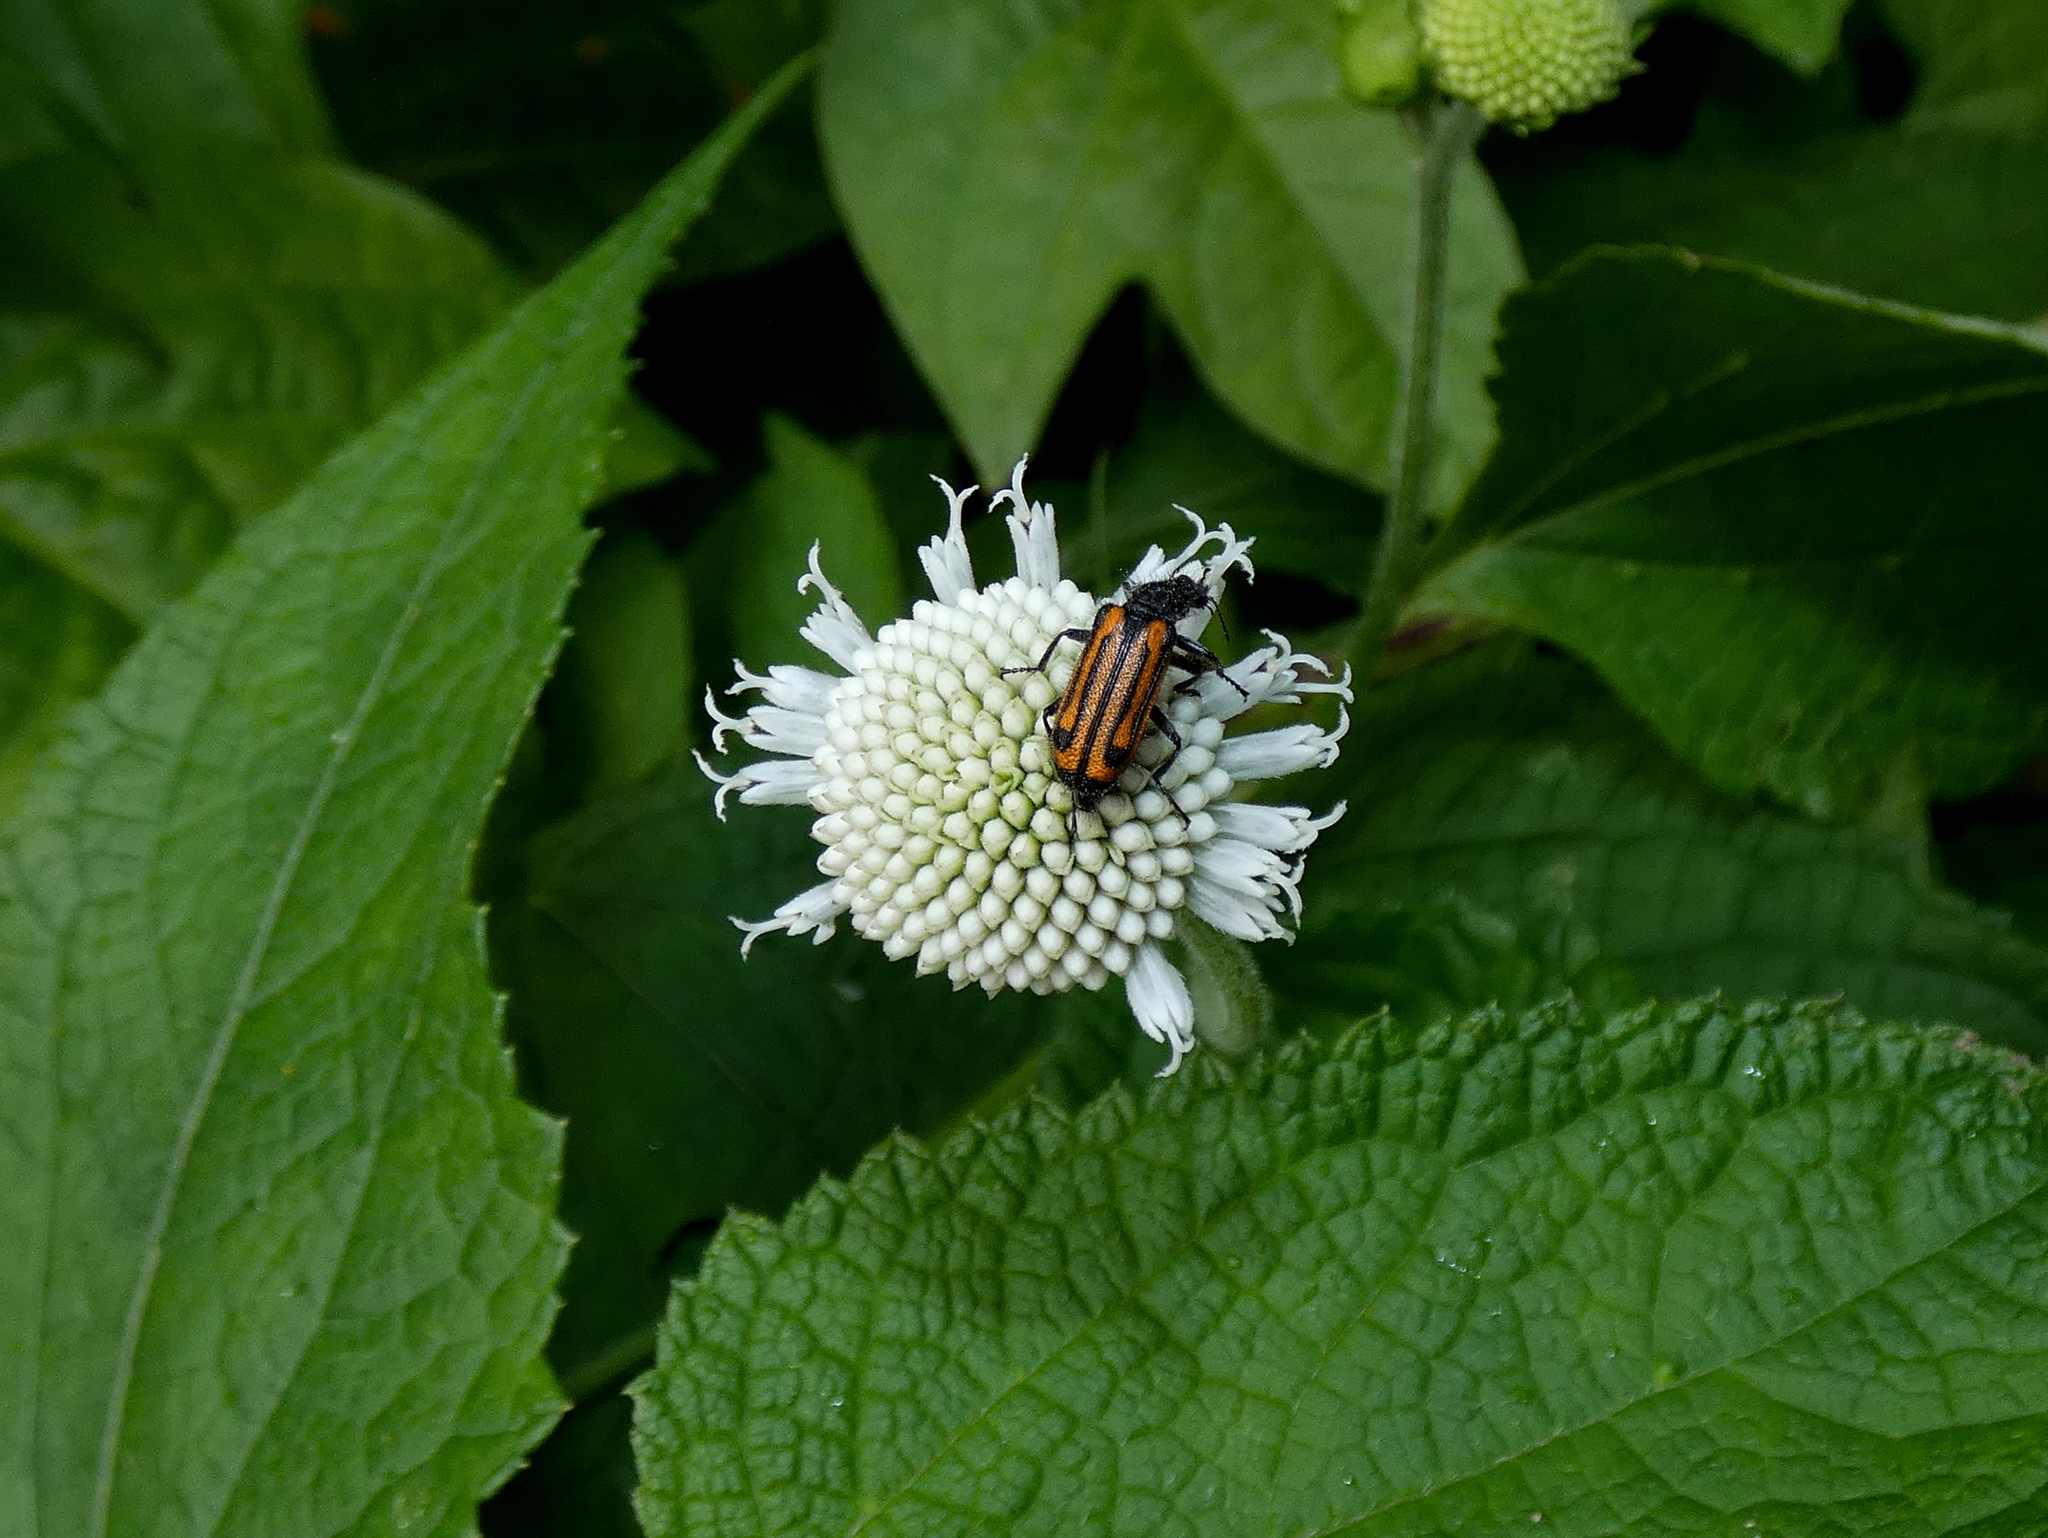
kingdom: Animalia
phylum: Arthropoda
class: Insecta
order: Coleoptera
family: Melyridae
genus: Astylus
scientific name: Astylus
